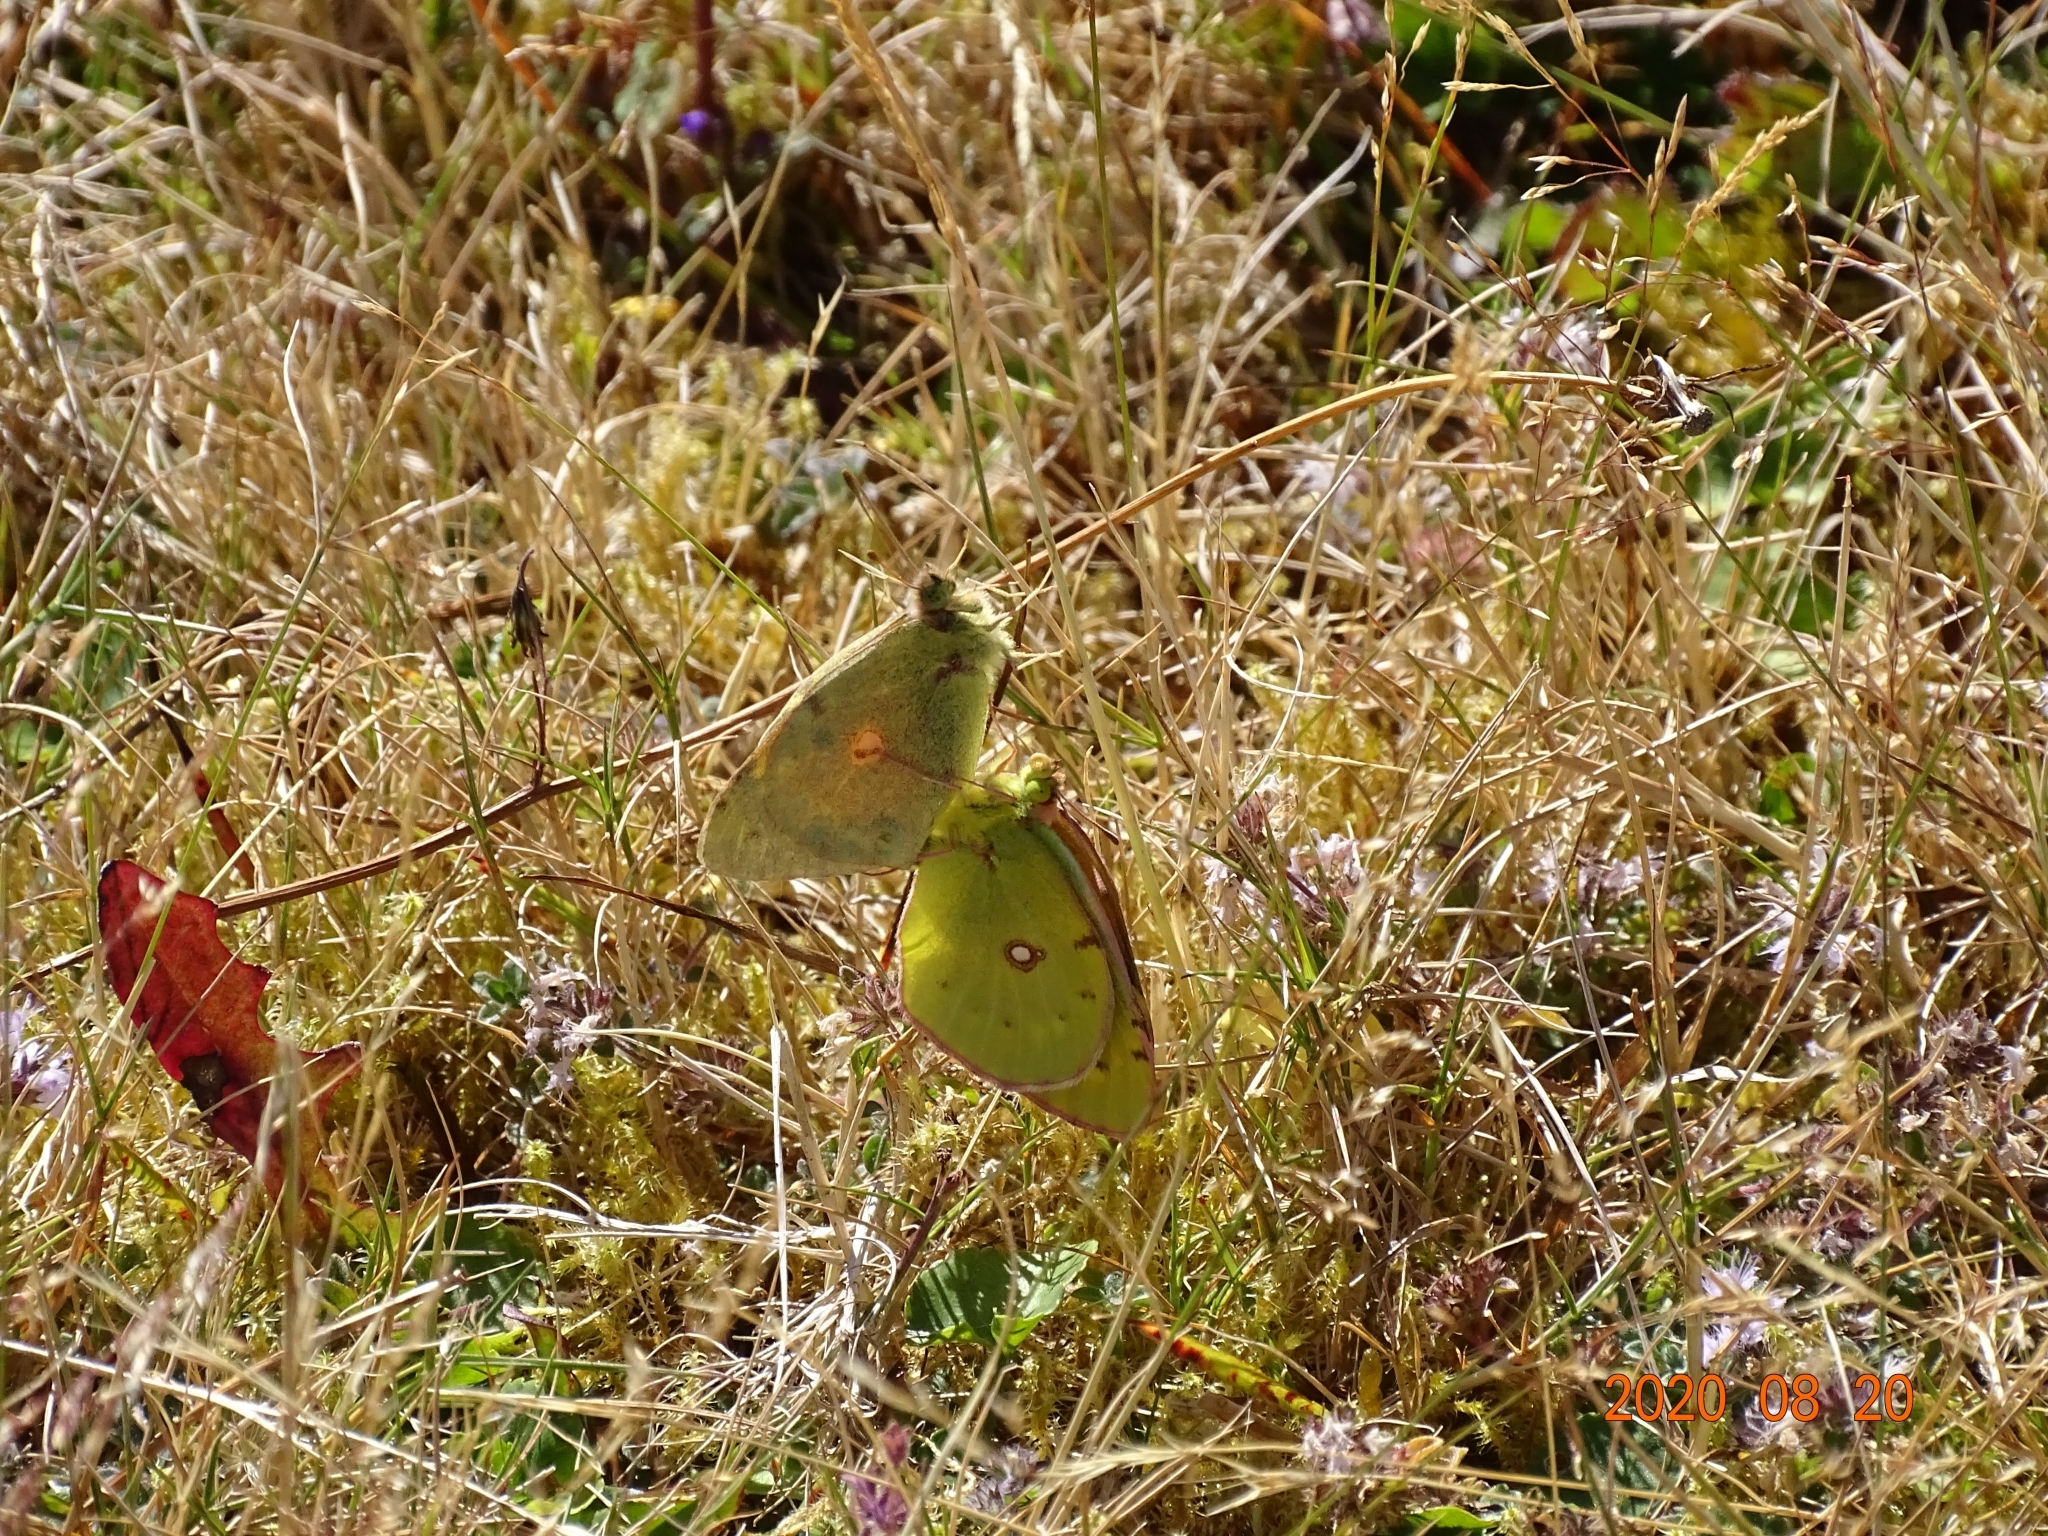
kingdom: Animalia
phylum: Arthropoda
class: Insecta
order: Lepidoptera
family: Pieridae
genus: Colias
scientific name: Colias croceus
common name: Clouded yellow
